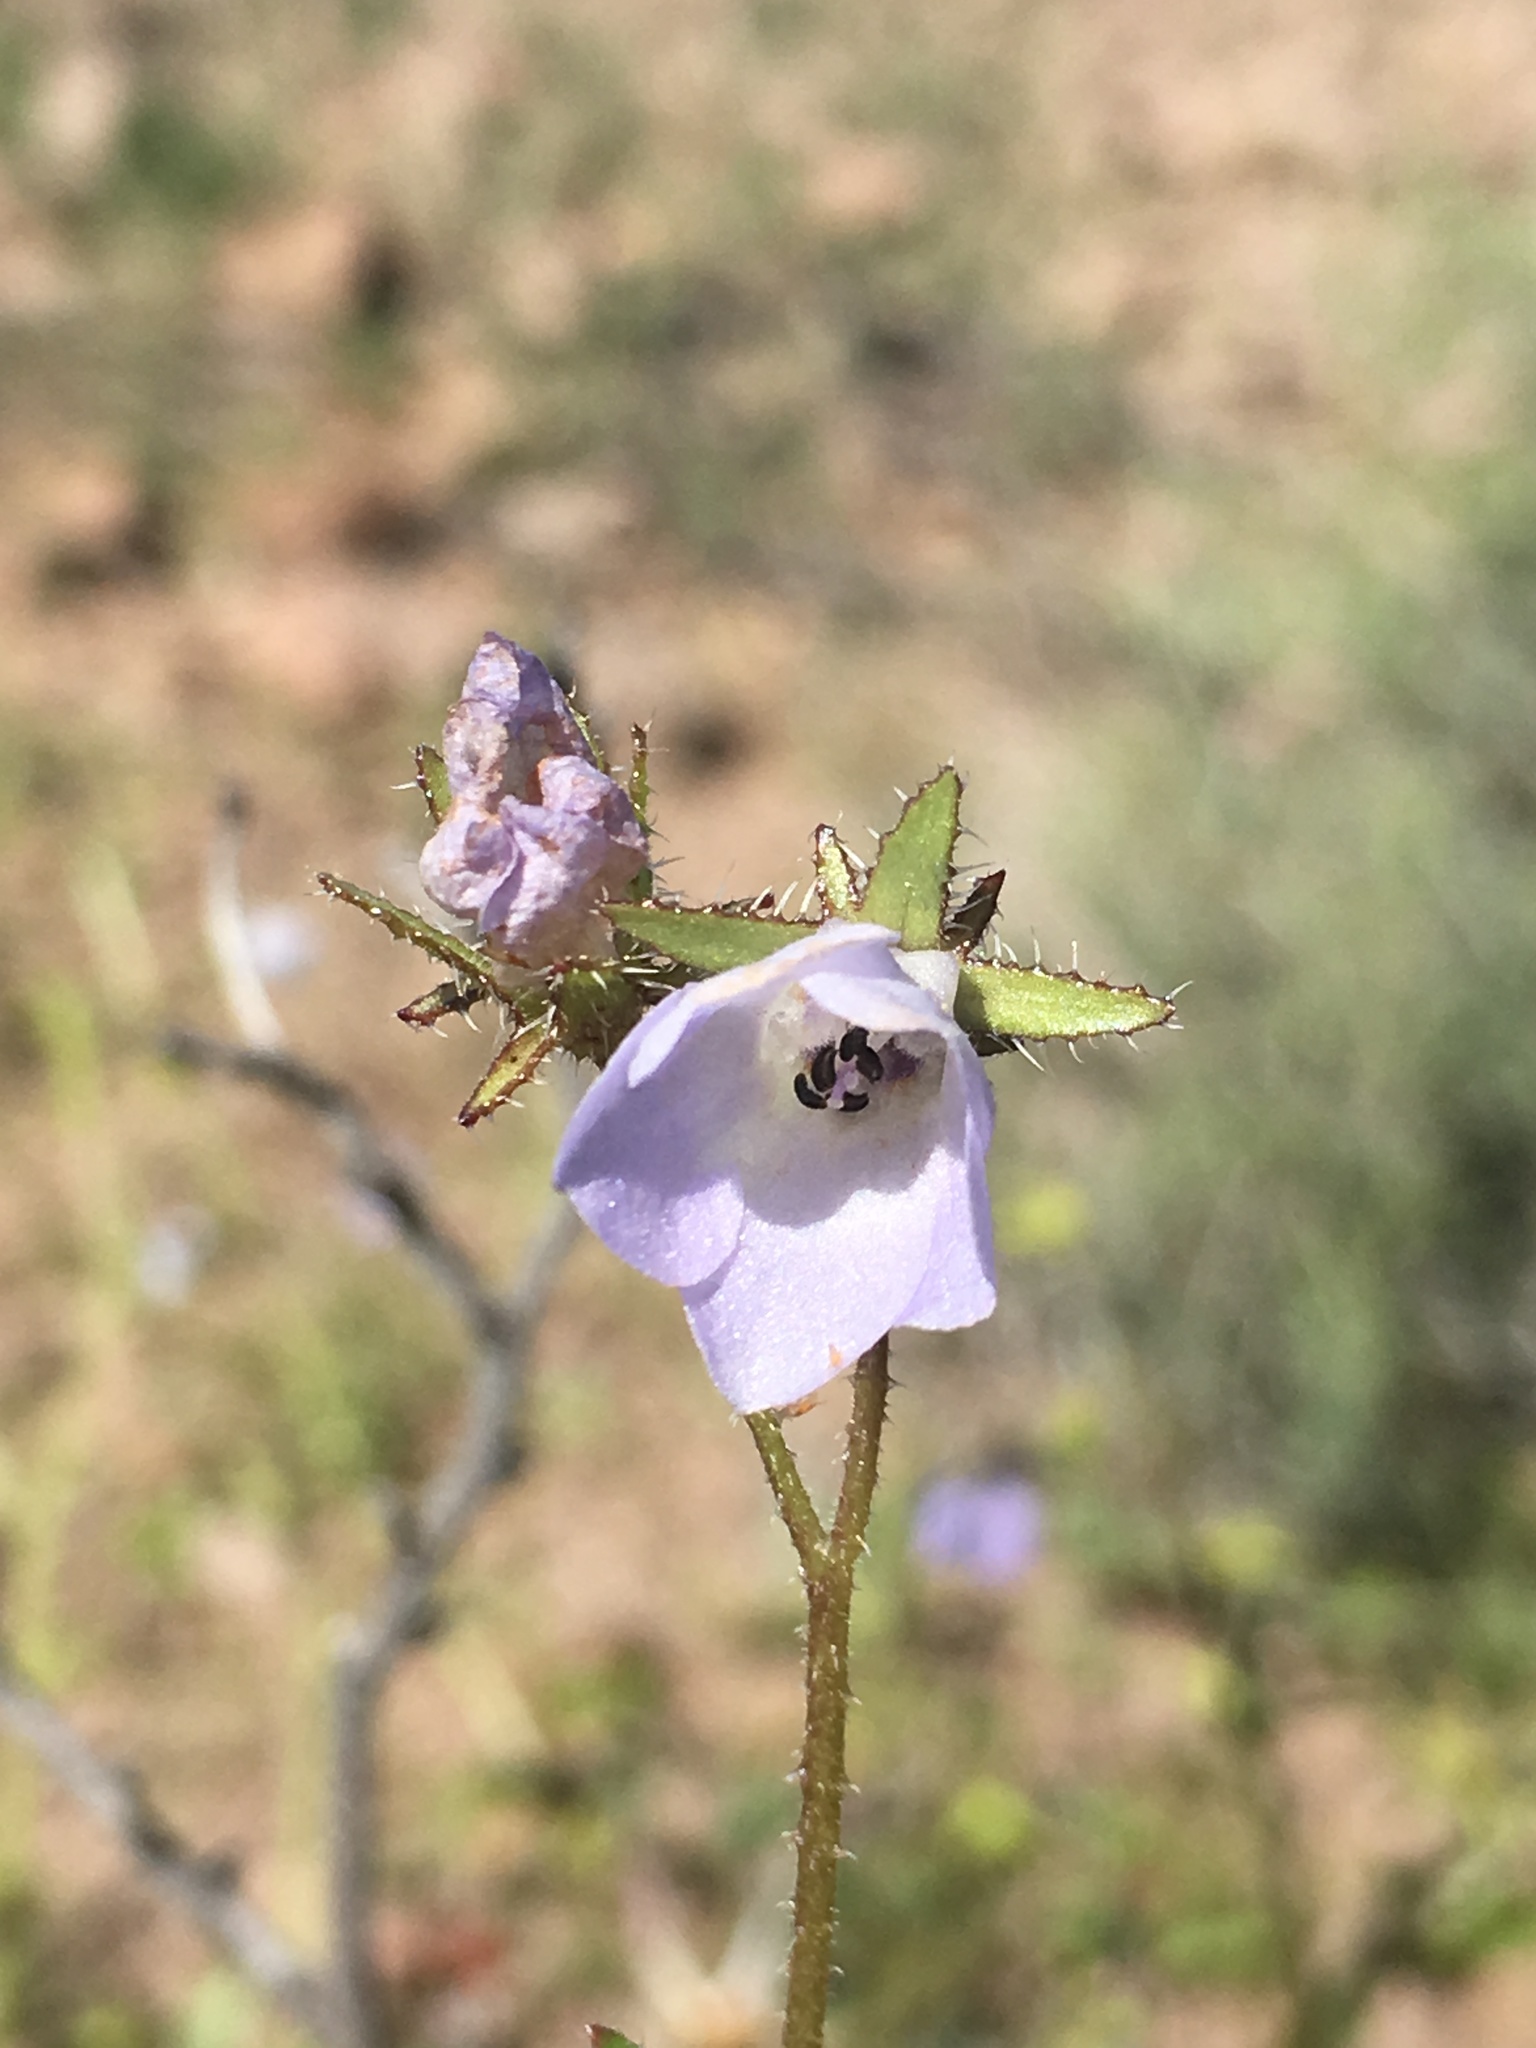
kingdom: Plantae
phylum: Tracheophyta
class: Magnoliopsida
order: Boraginales
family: Hydrophyllaceae
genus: Pholistoma
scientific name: Pholistoma auritum
